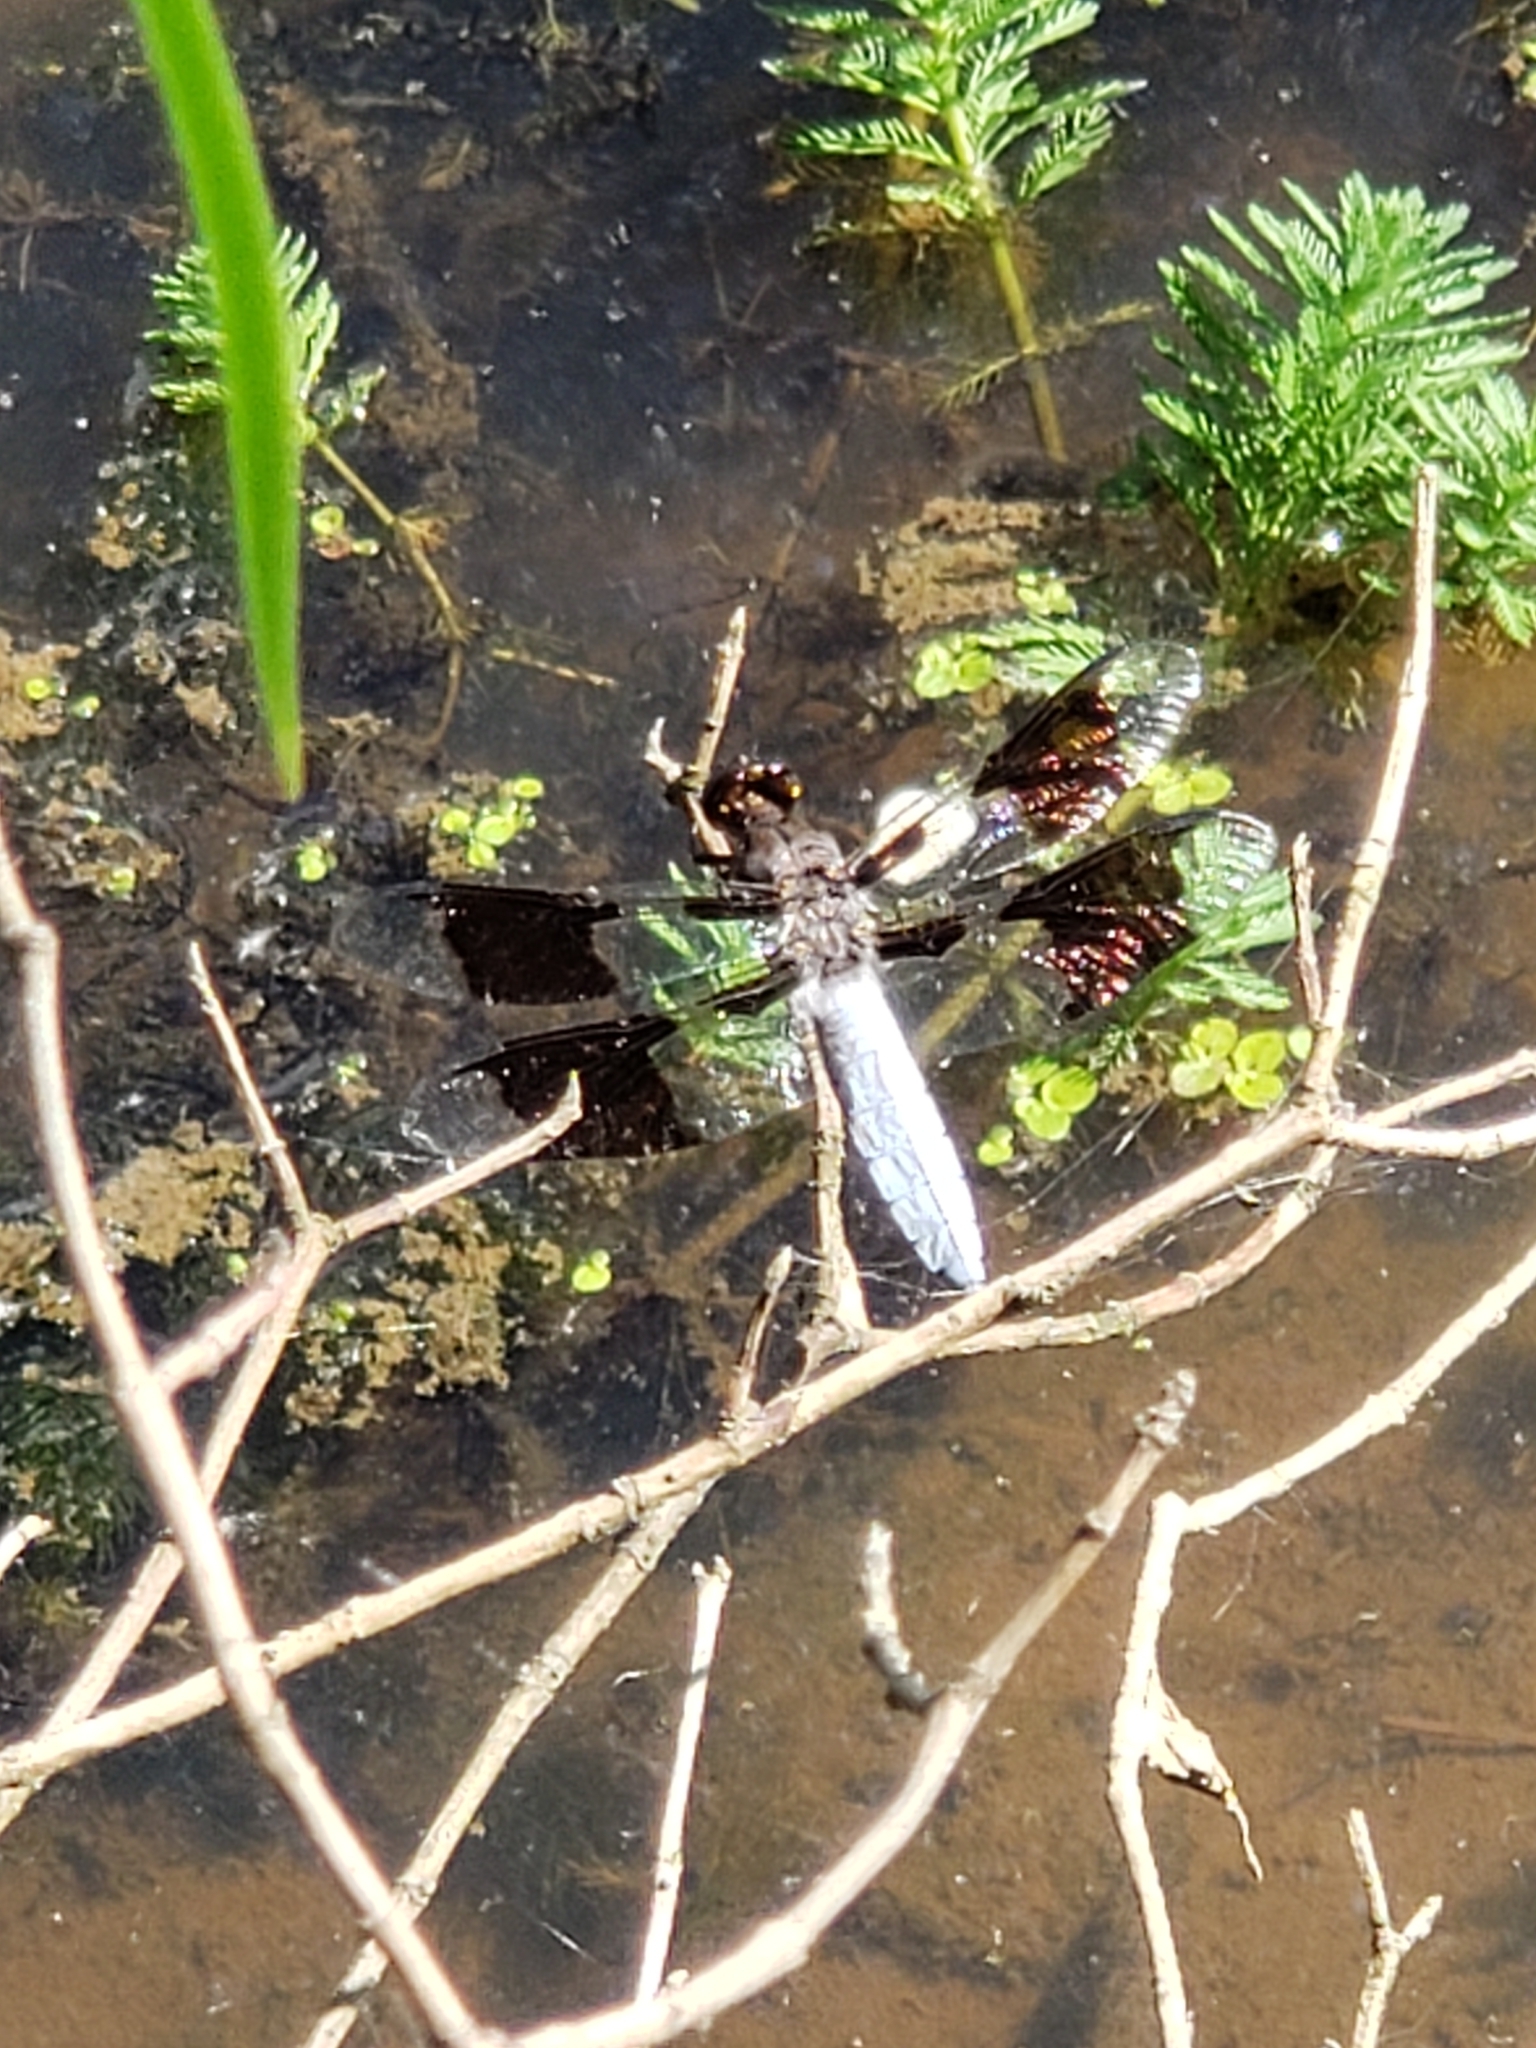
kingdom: Animalia
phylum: Arthropoda
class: Insecta
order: Odonata
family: Libellulidae
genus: Plathemis
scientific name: Plathemis lydia
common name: Common whitetail
